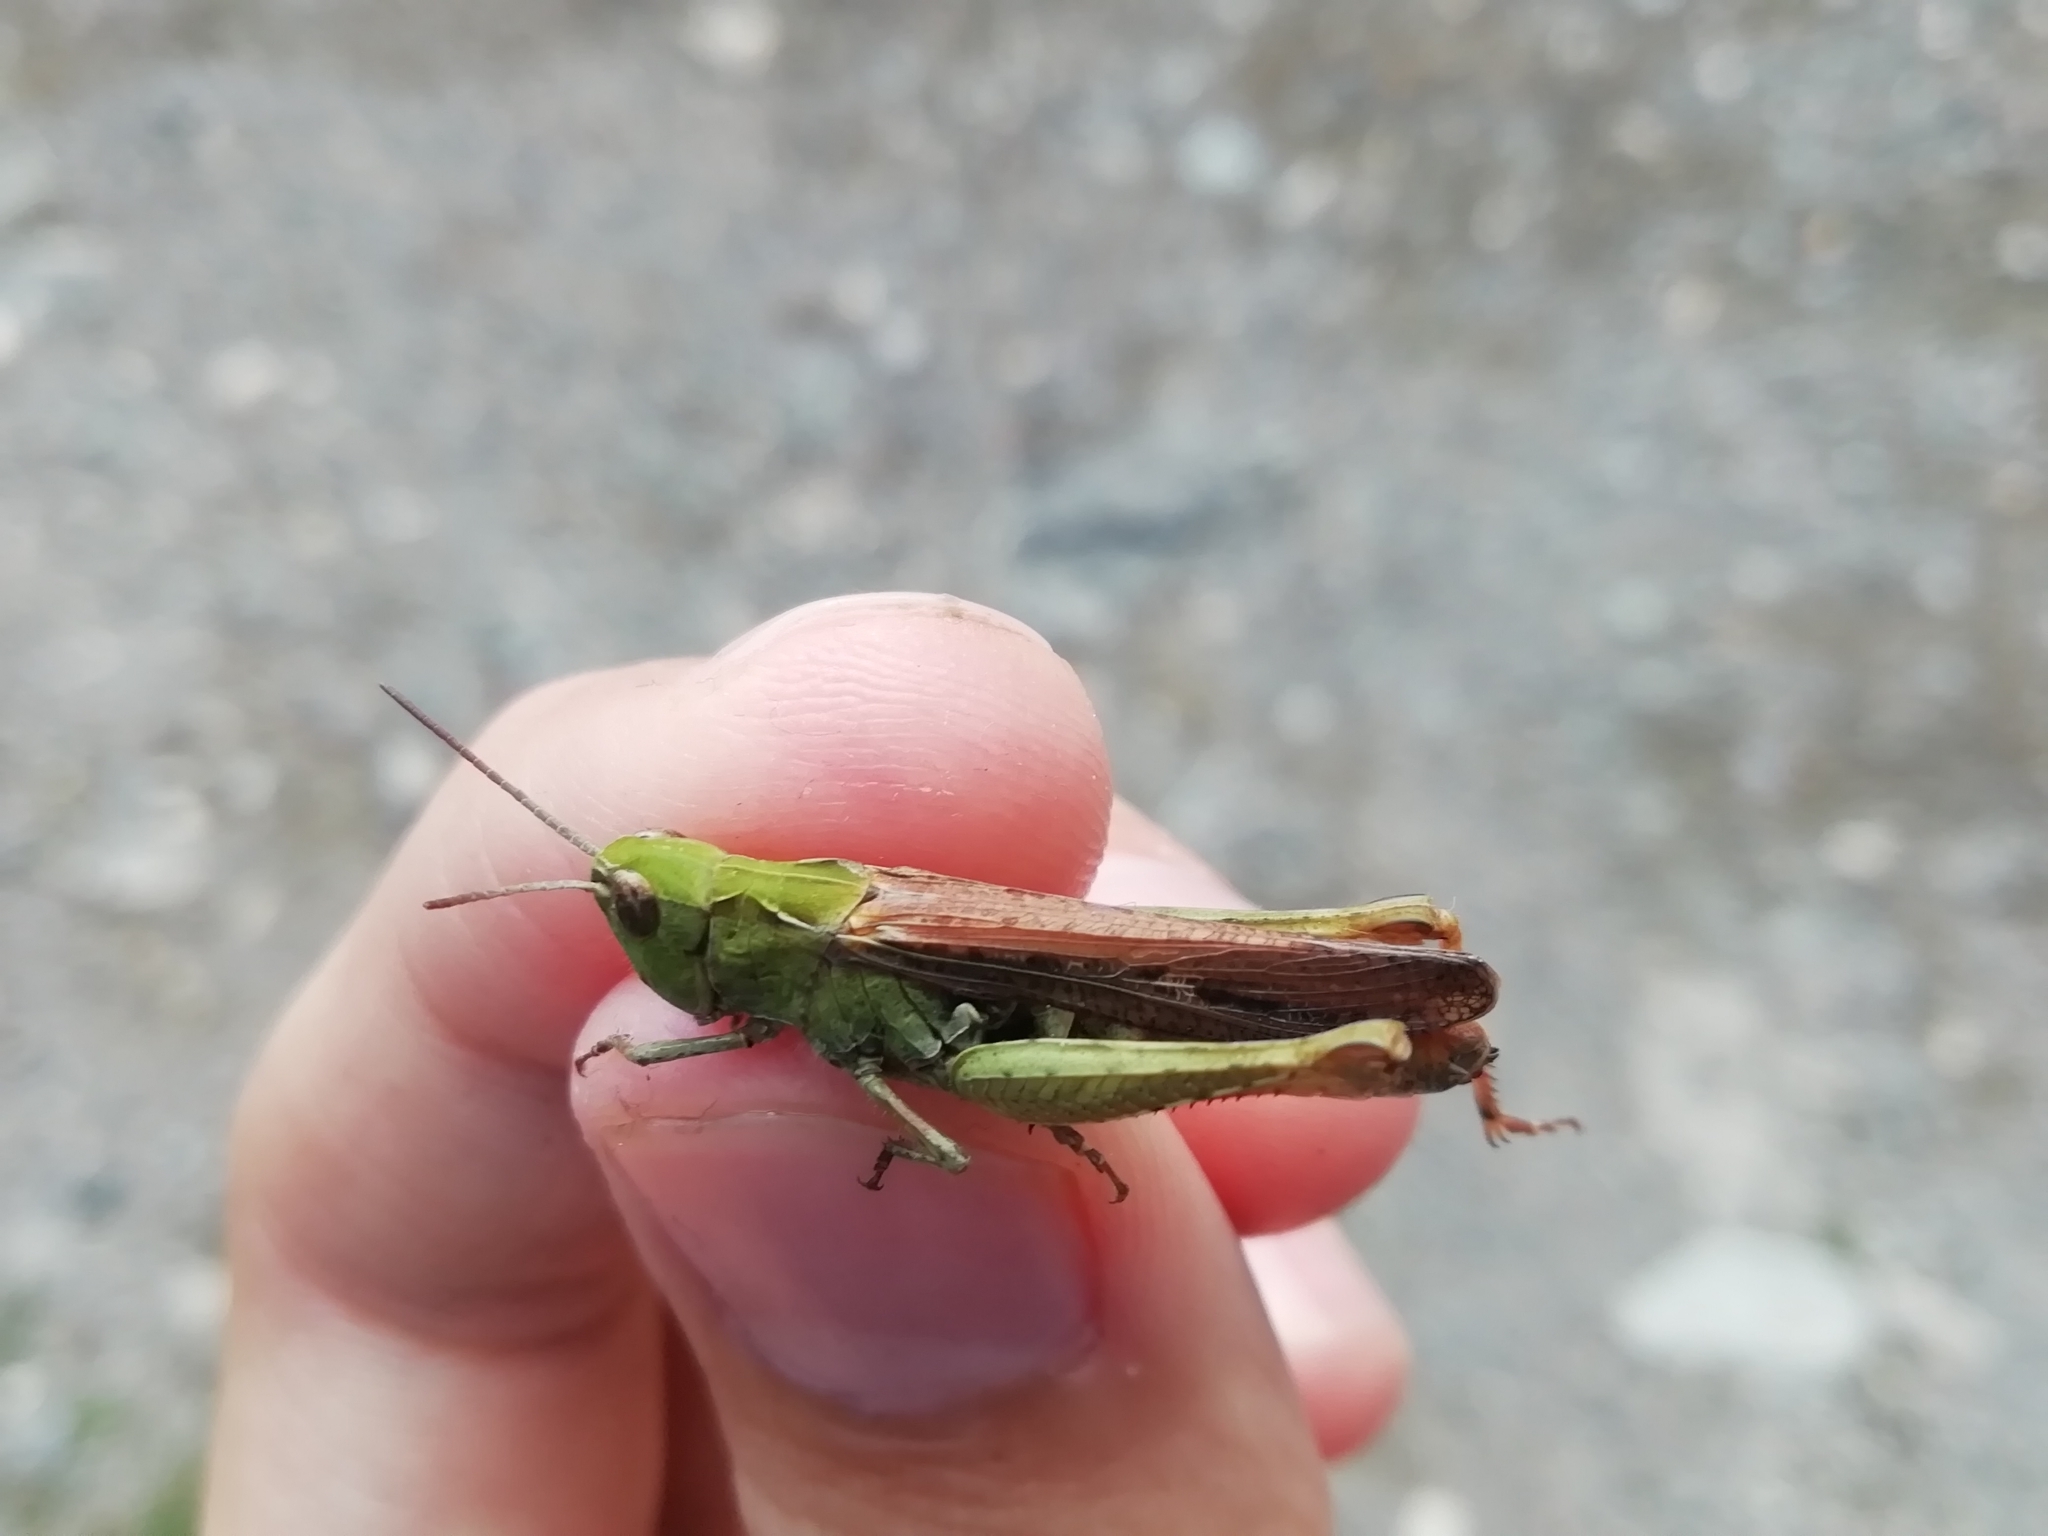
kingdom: Animalia
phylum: Arthropoda
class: Insecta
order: Orthoptera
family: Acrididae
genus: Chorthippus
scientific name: Chorthippus miramae
